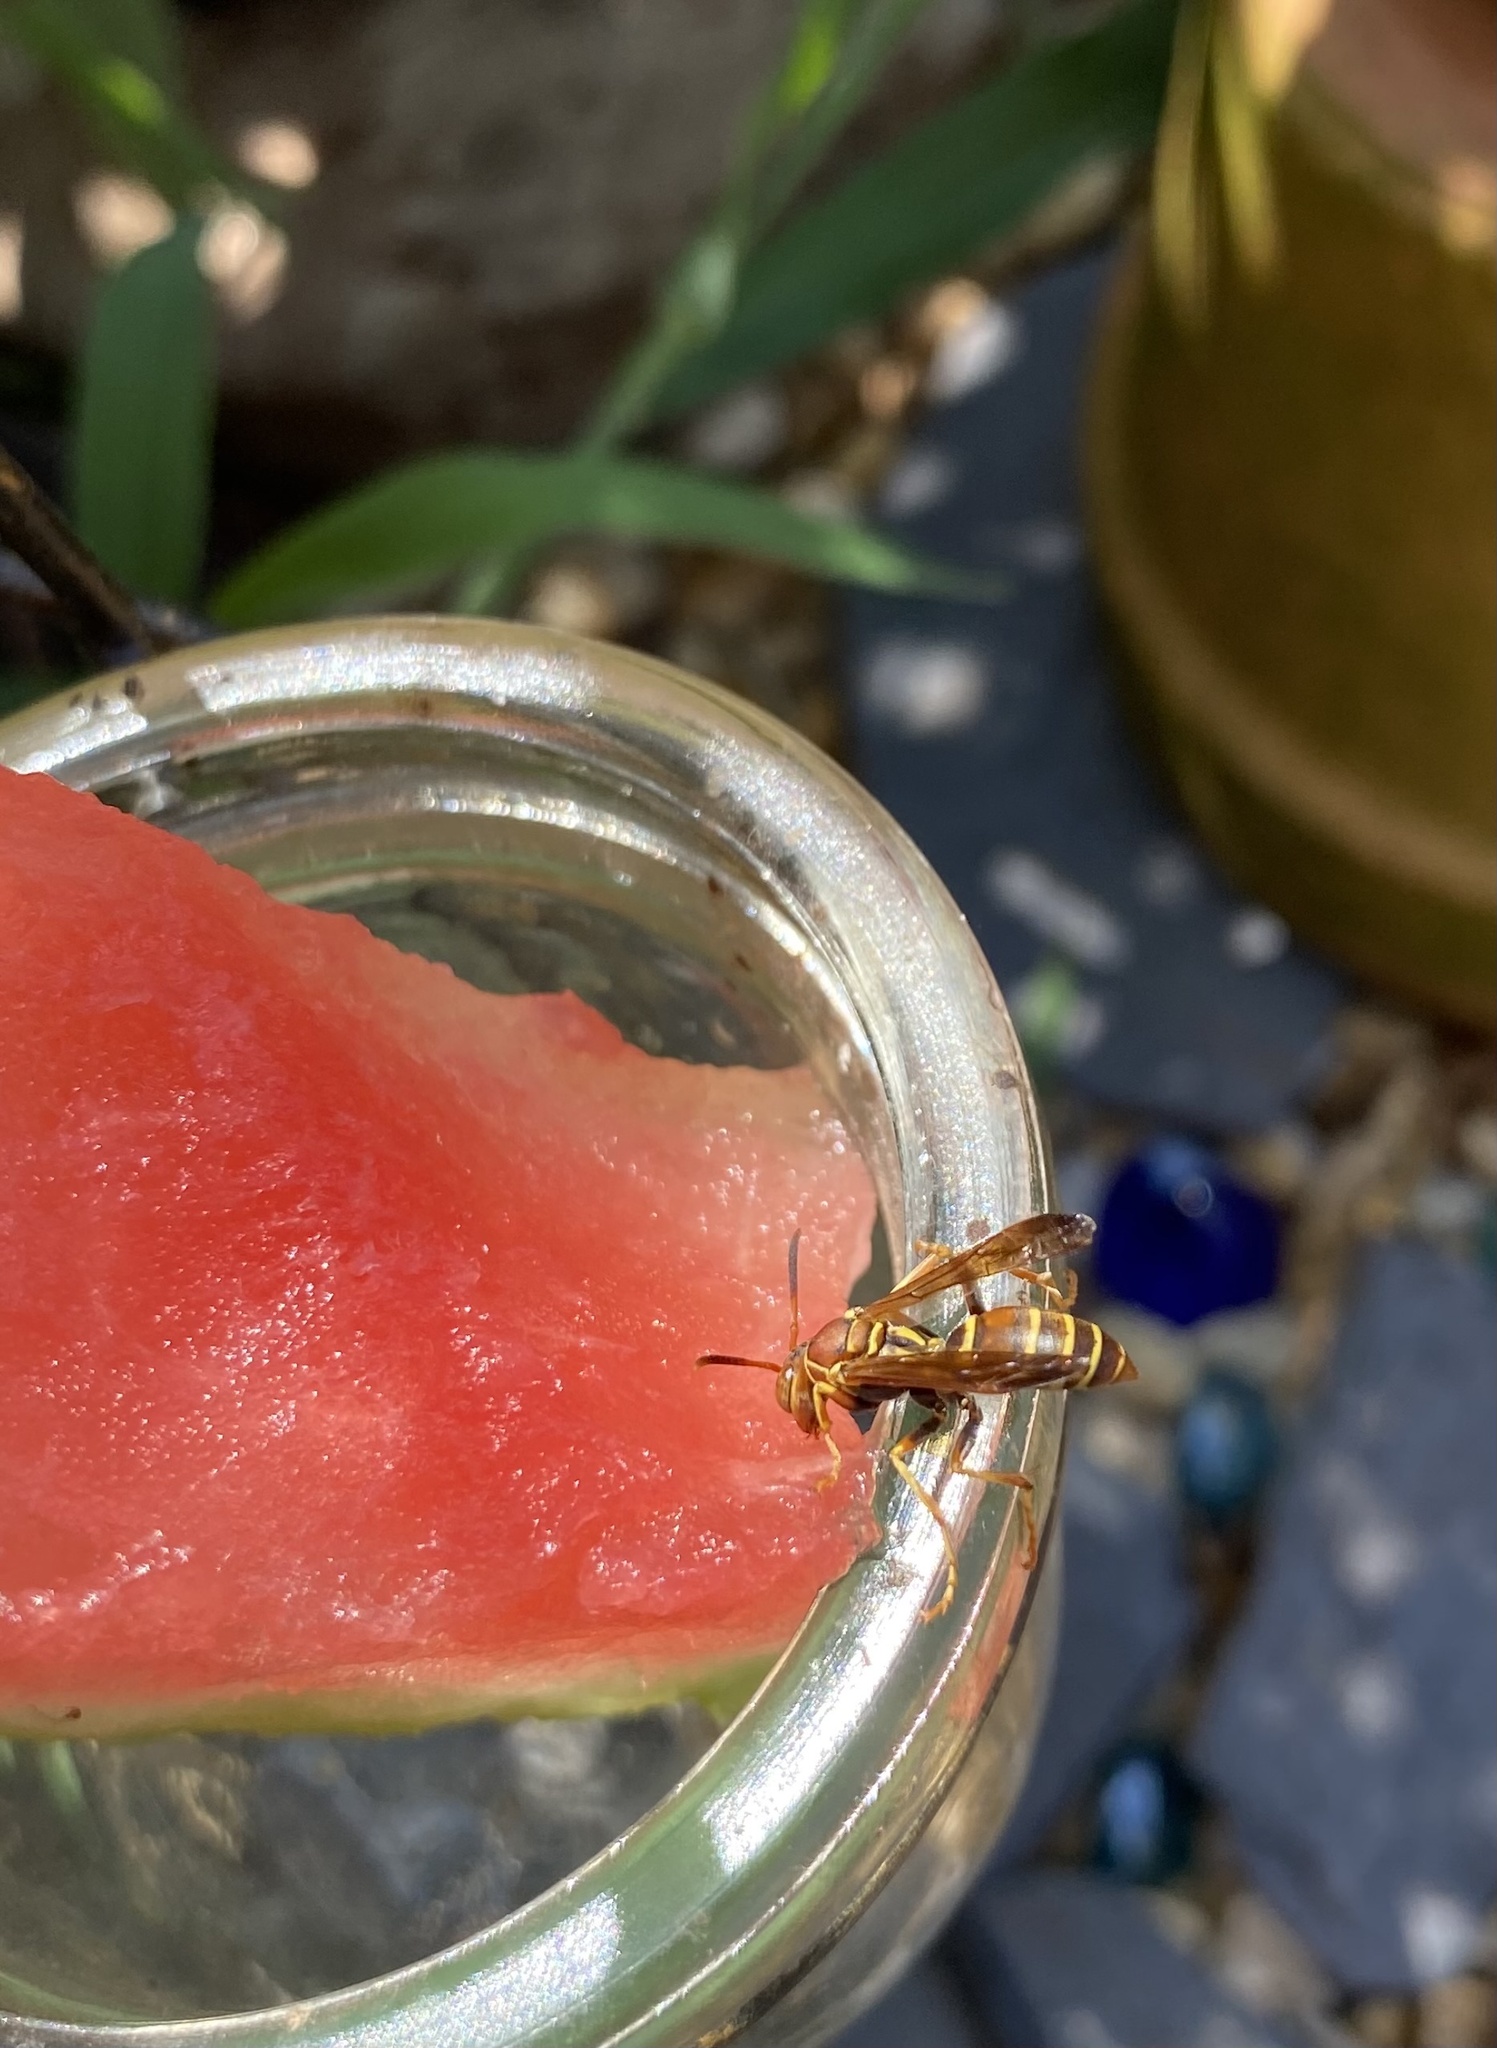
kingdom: Animalia
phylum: Arthropoda
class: Insecta
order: Hymenoptera
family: Eumenidae
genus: Polistes
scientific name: Polistes dorsalis
